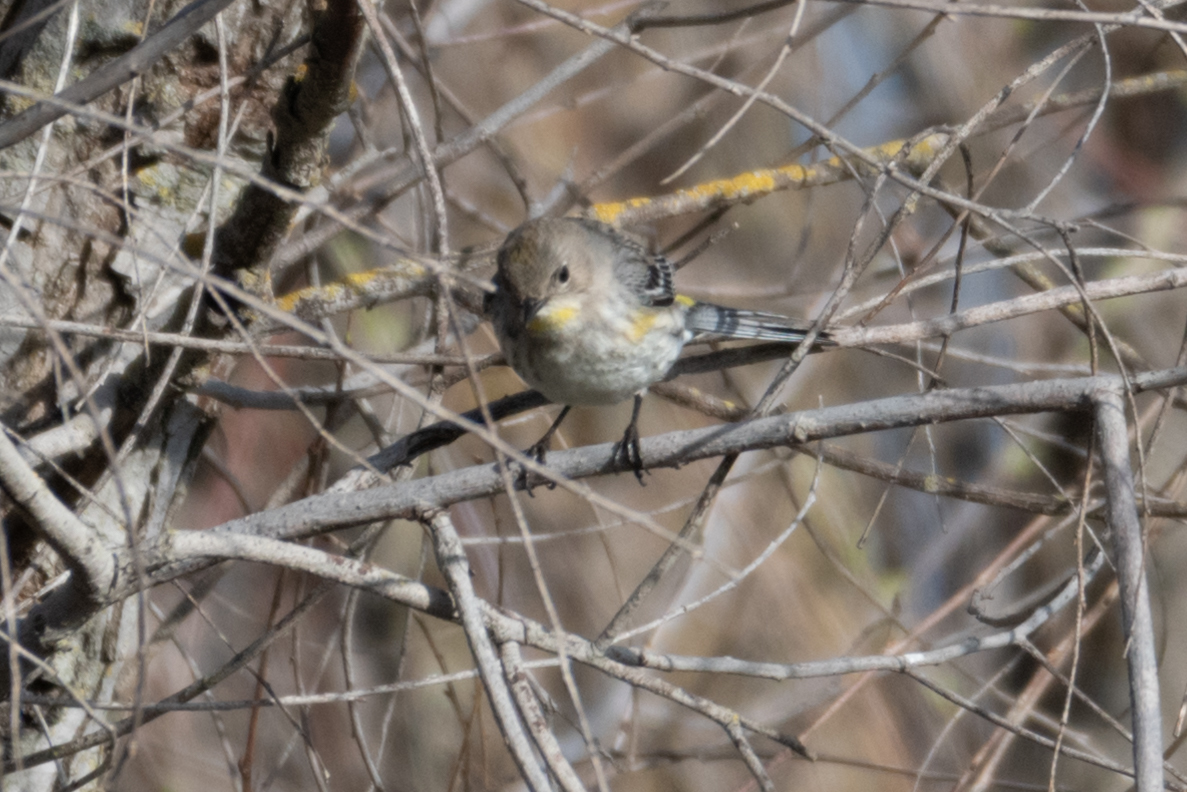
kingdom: Animalia
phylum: Chordata
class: Aves
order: Passeriformes
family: Parulidae
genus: Setophaga
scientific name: Setophaga coronata
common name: Myrtle warbler
